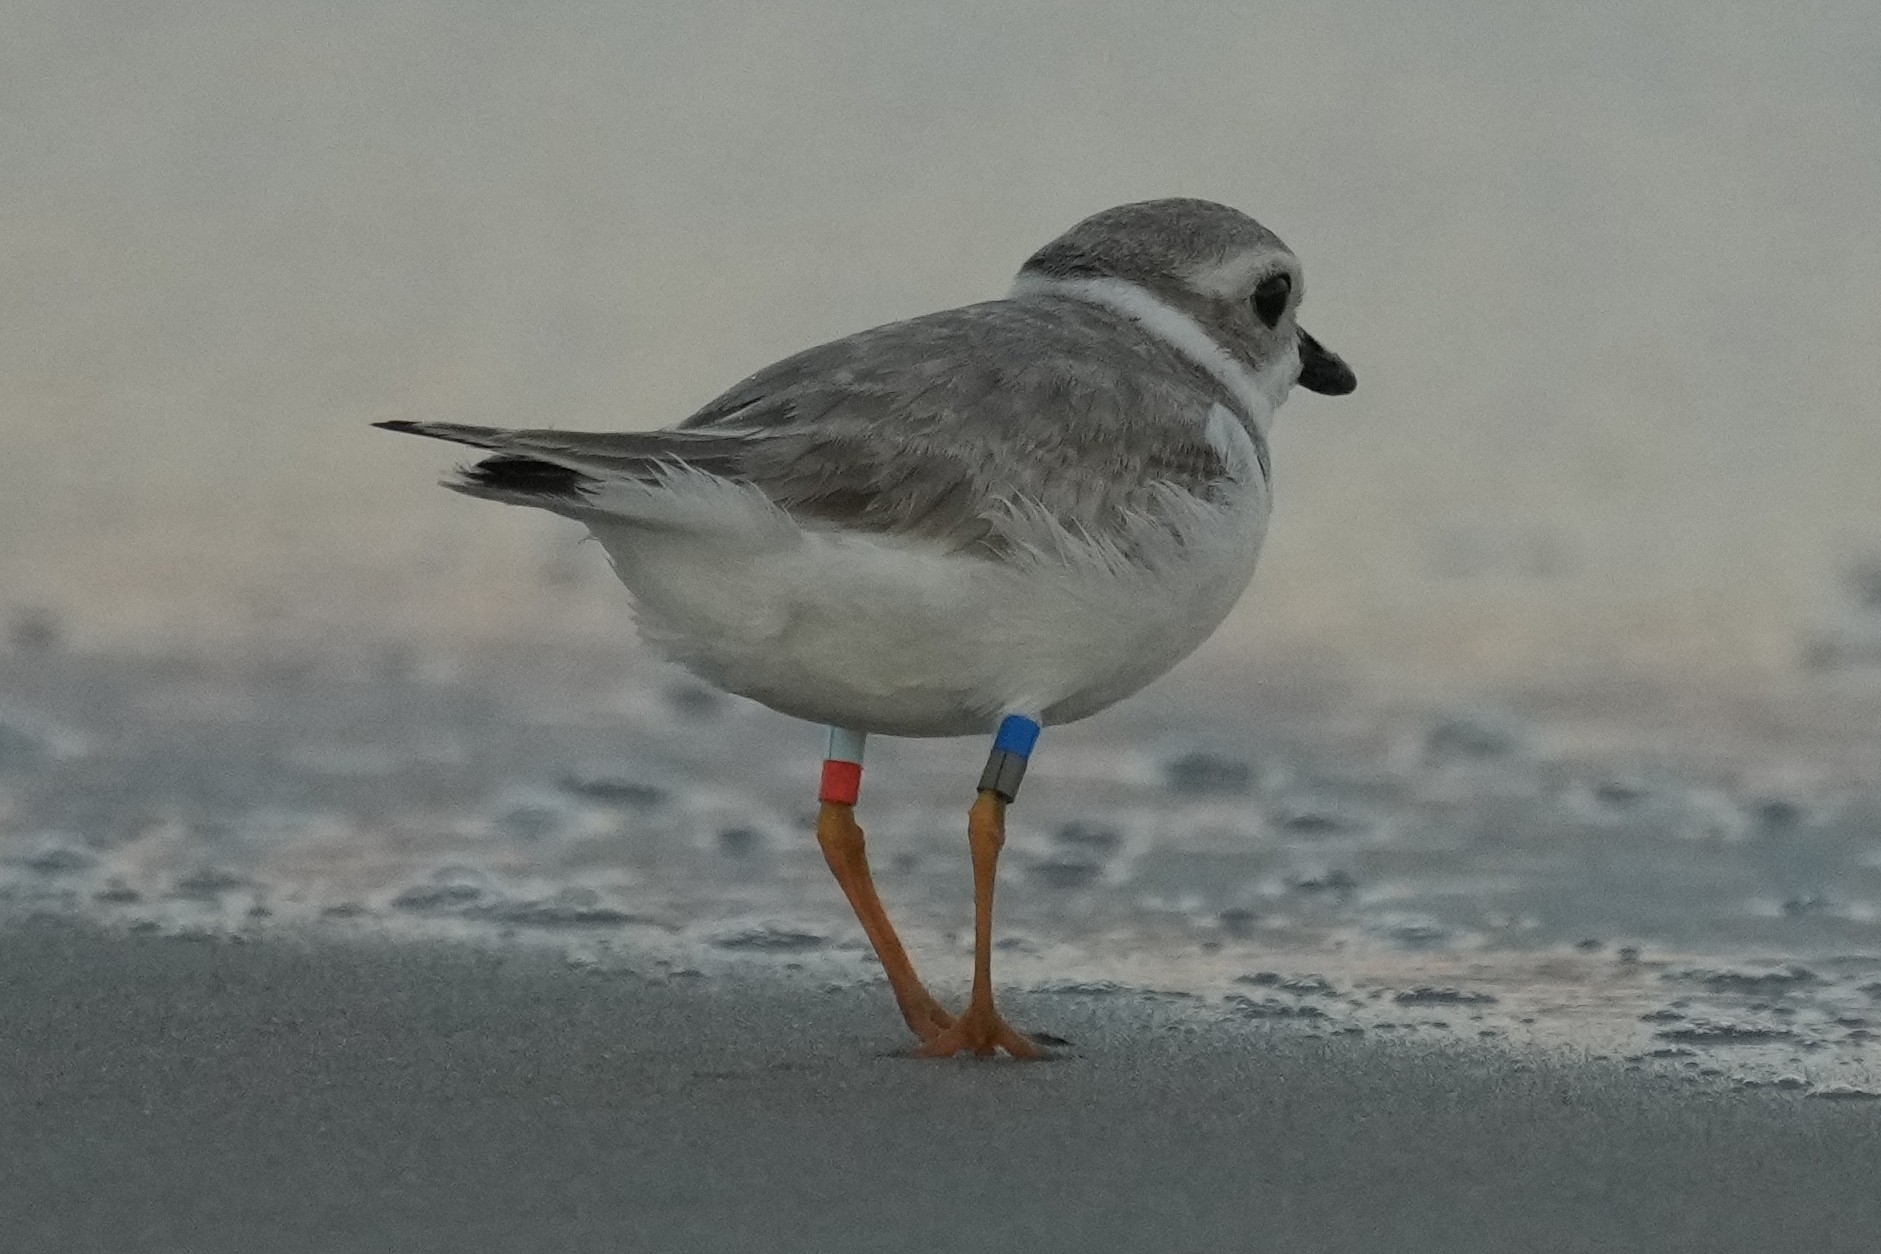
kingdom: Animalia
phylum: Chordata
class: Aves
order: Charadriiformes
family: Charadriidae
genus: Charadrius
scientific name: Charadrius melodus
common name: Piping plover
